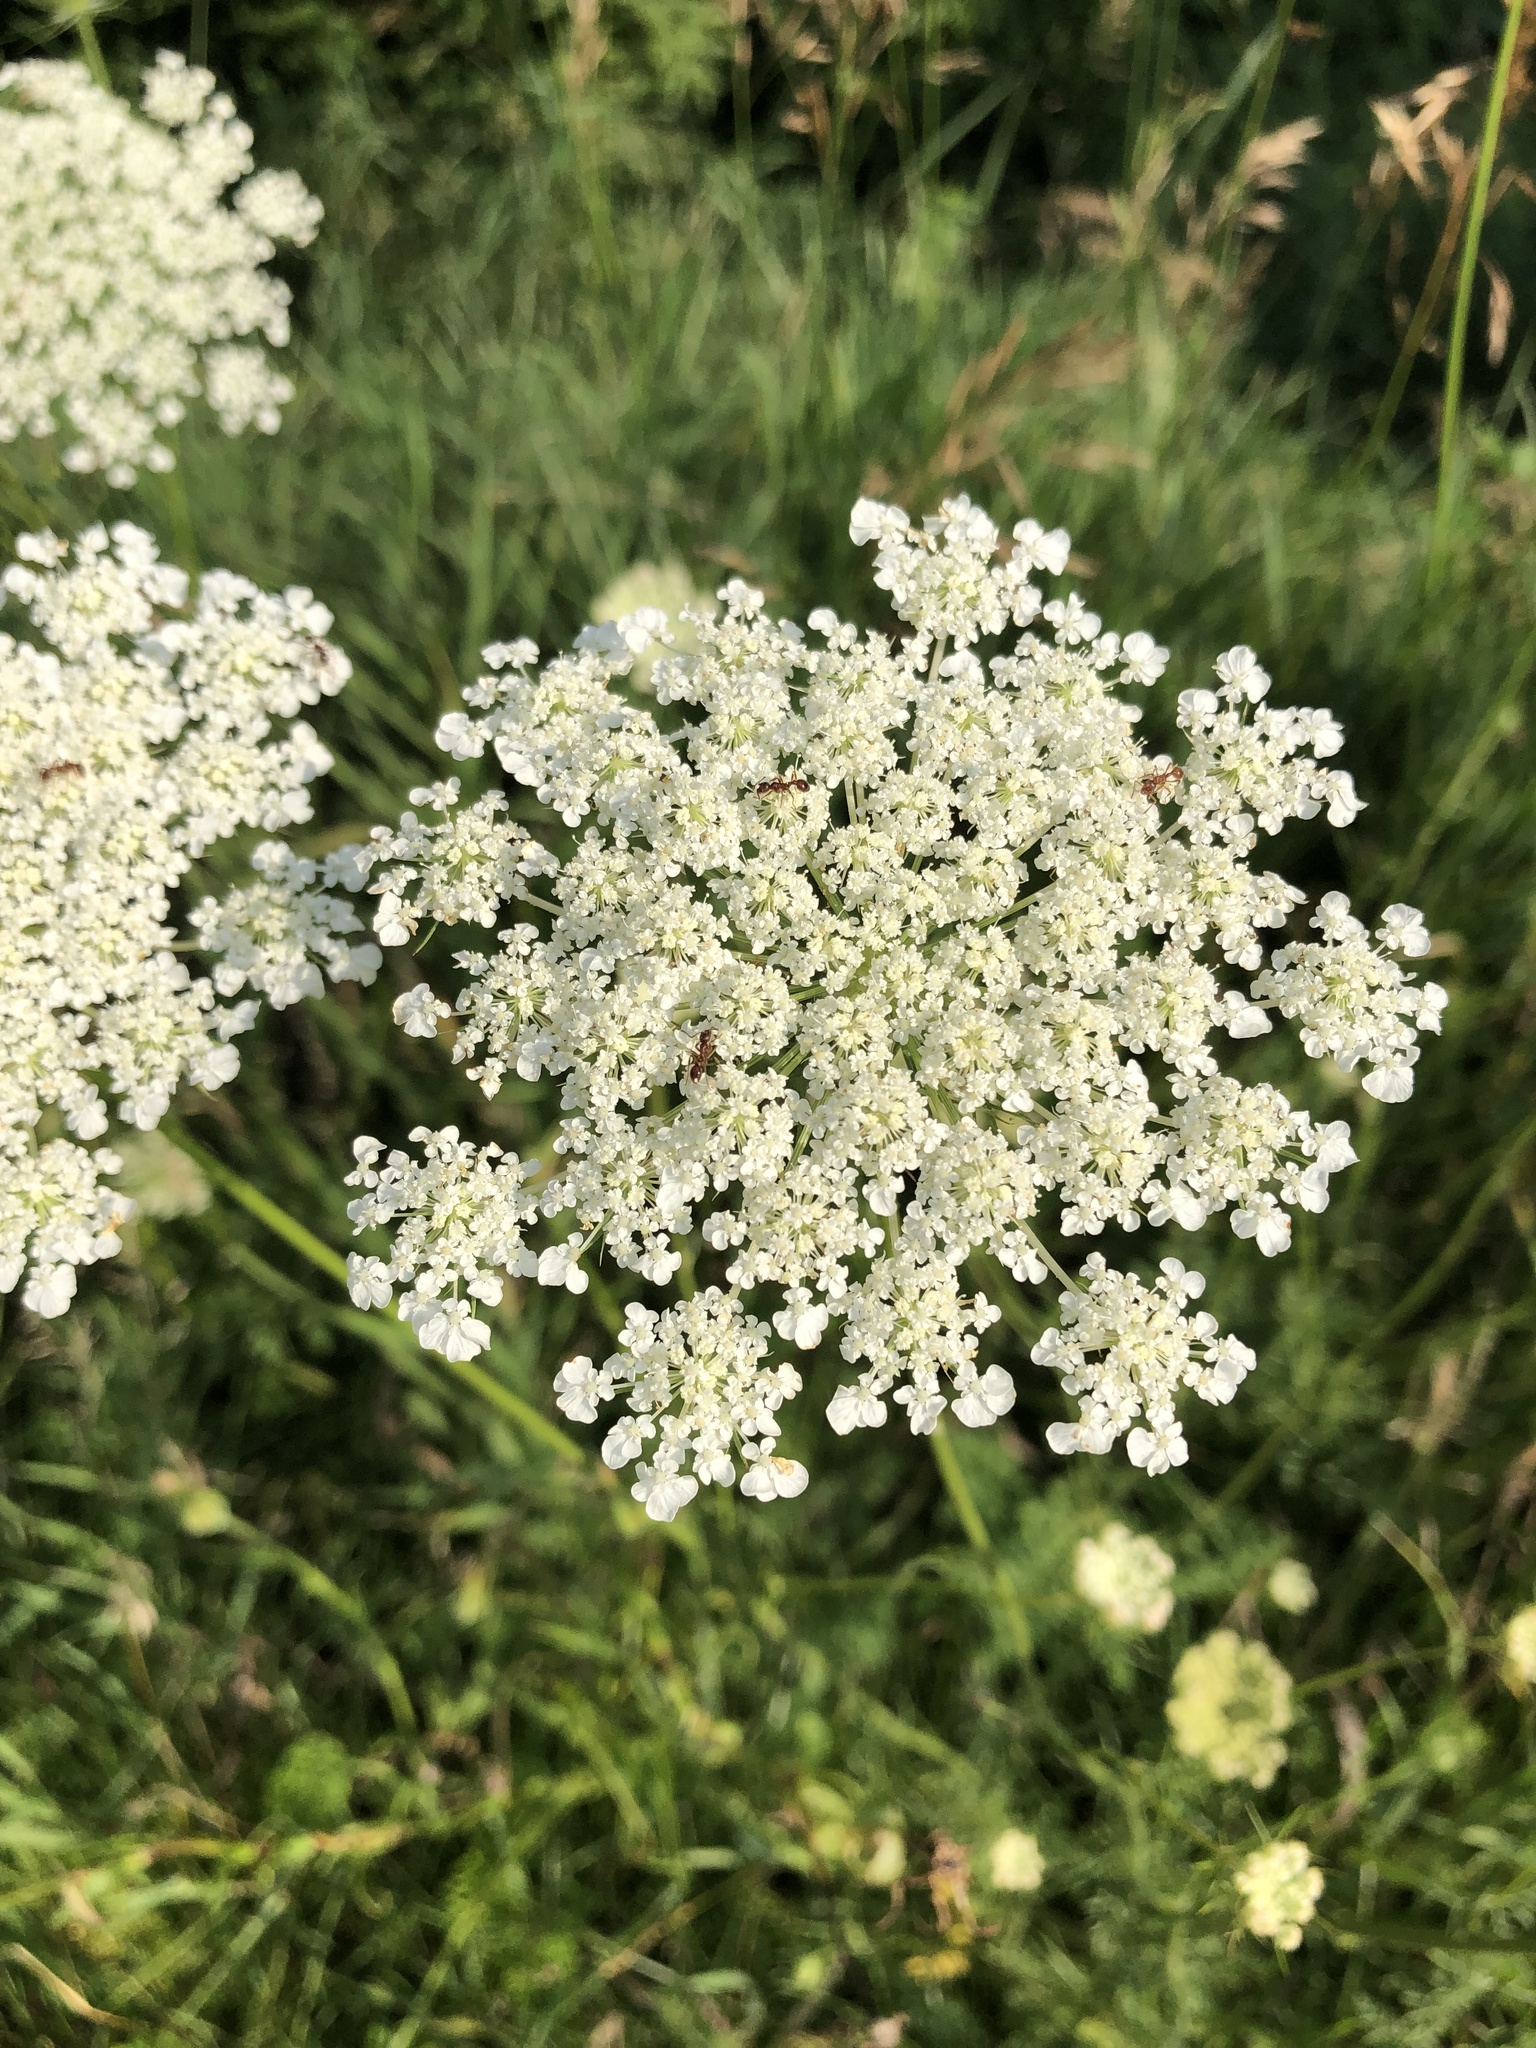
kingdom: Plantae
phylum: Tracheophyta
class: Magnoliopsida
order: Apiales
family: Apiaceae
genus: Daucus
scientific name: Daucus carota
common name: Wild carrot
